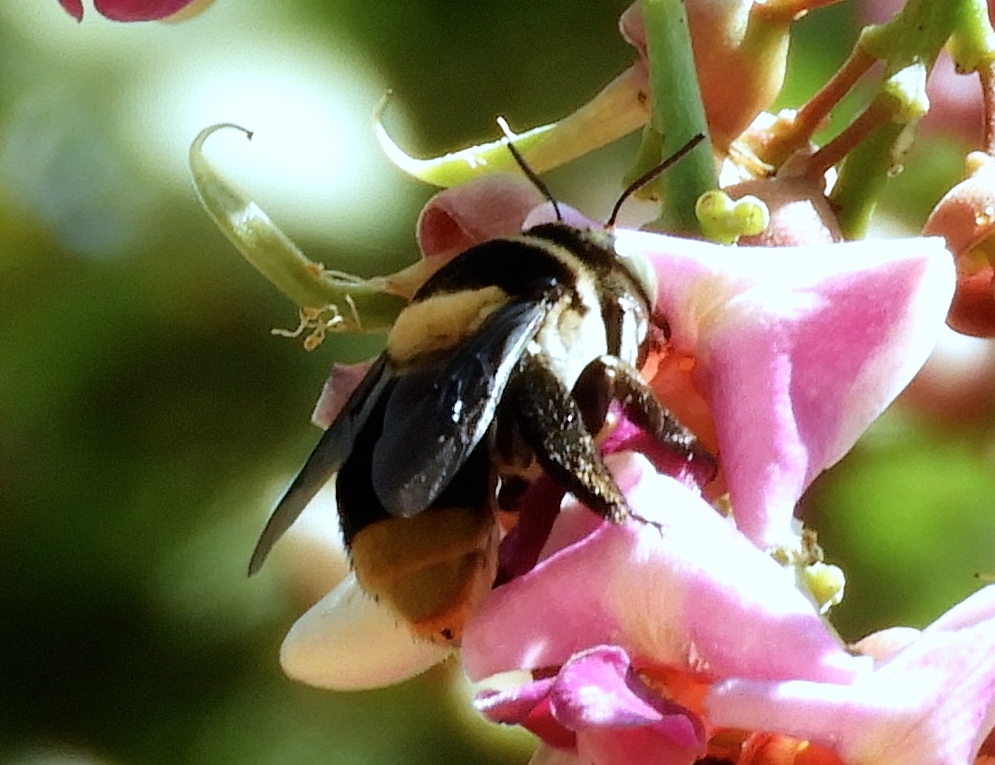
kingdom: Animalia
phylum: Arthropoda
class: Insecta
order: Hymenoptera
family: Apidae
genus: Centris
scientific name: Centris flavofasciata
